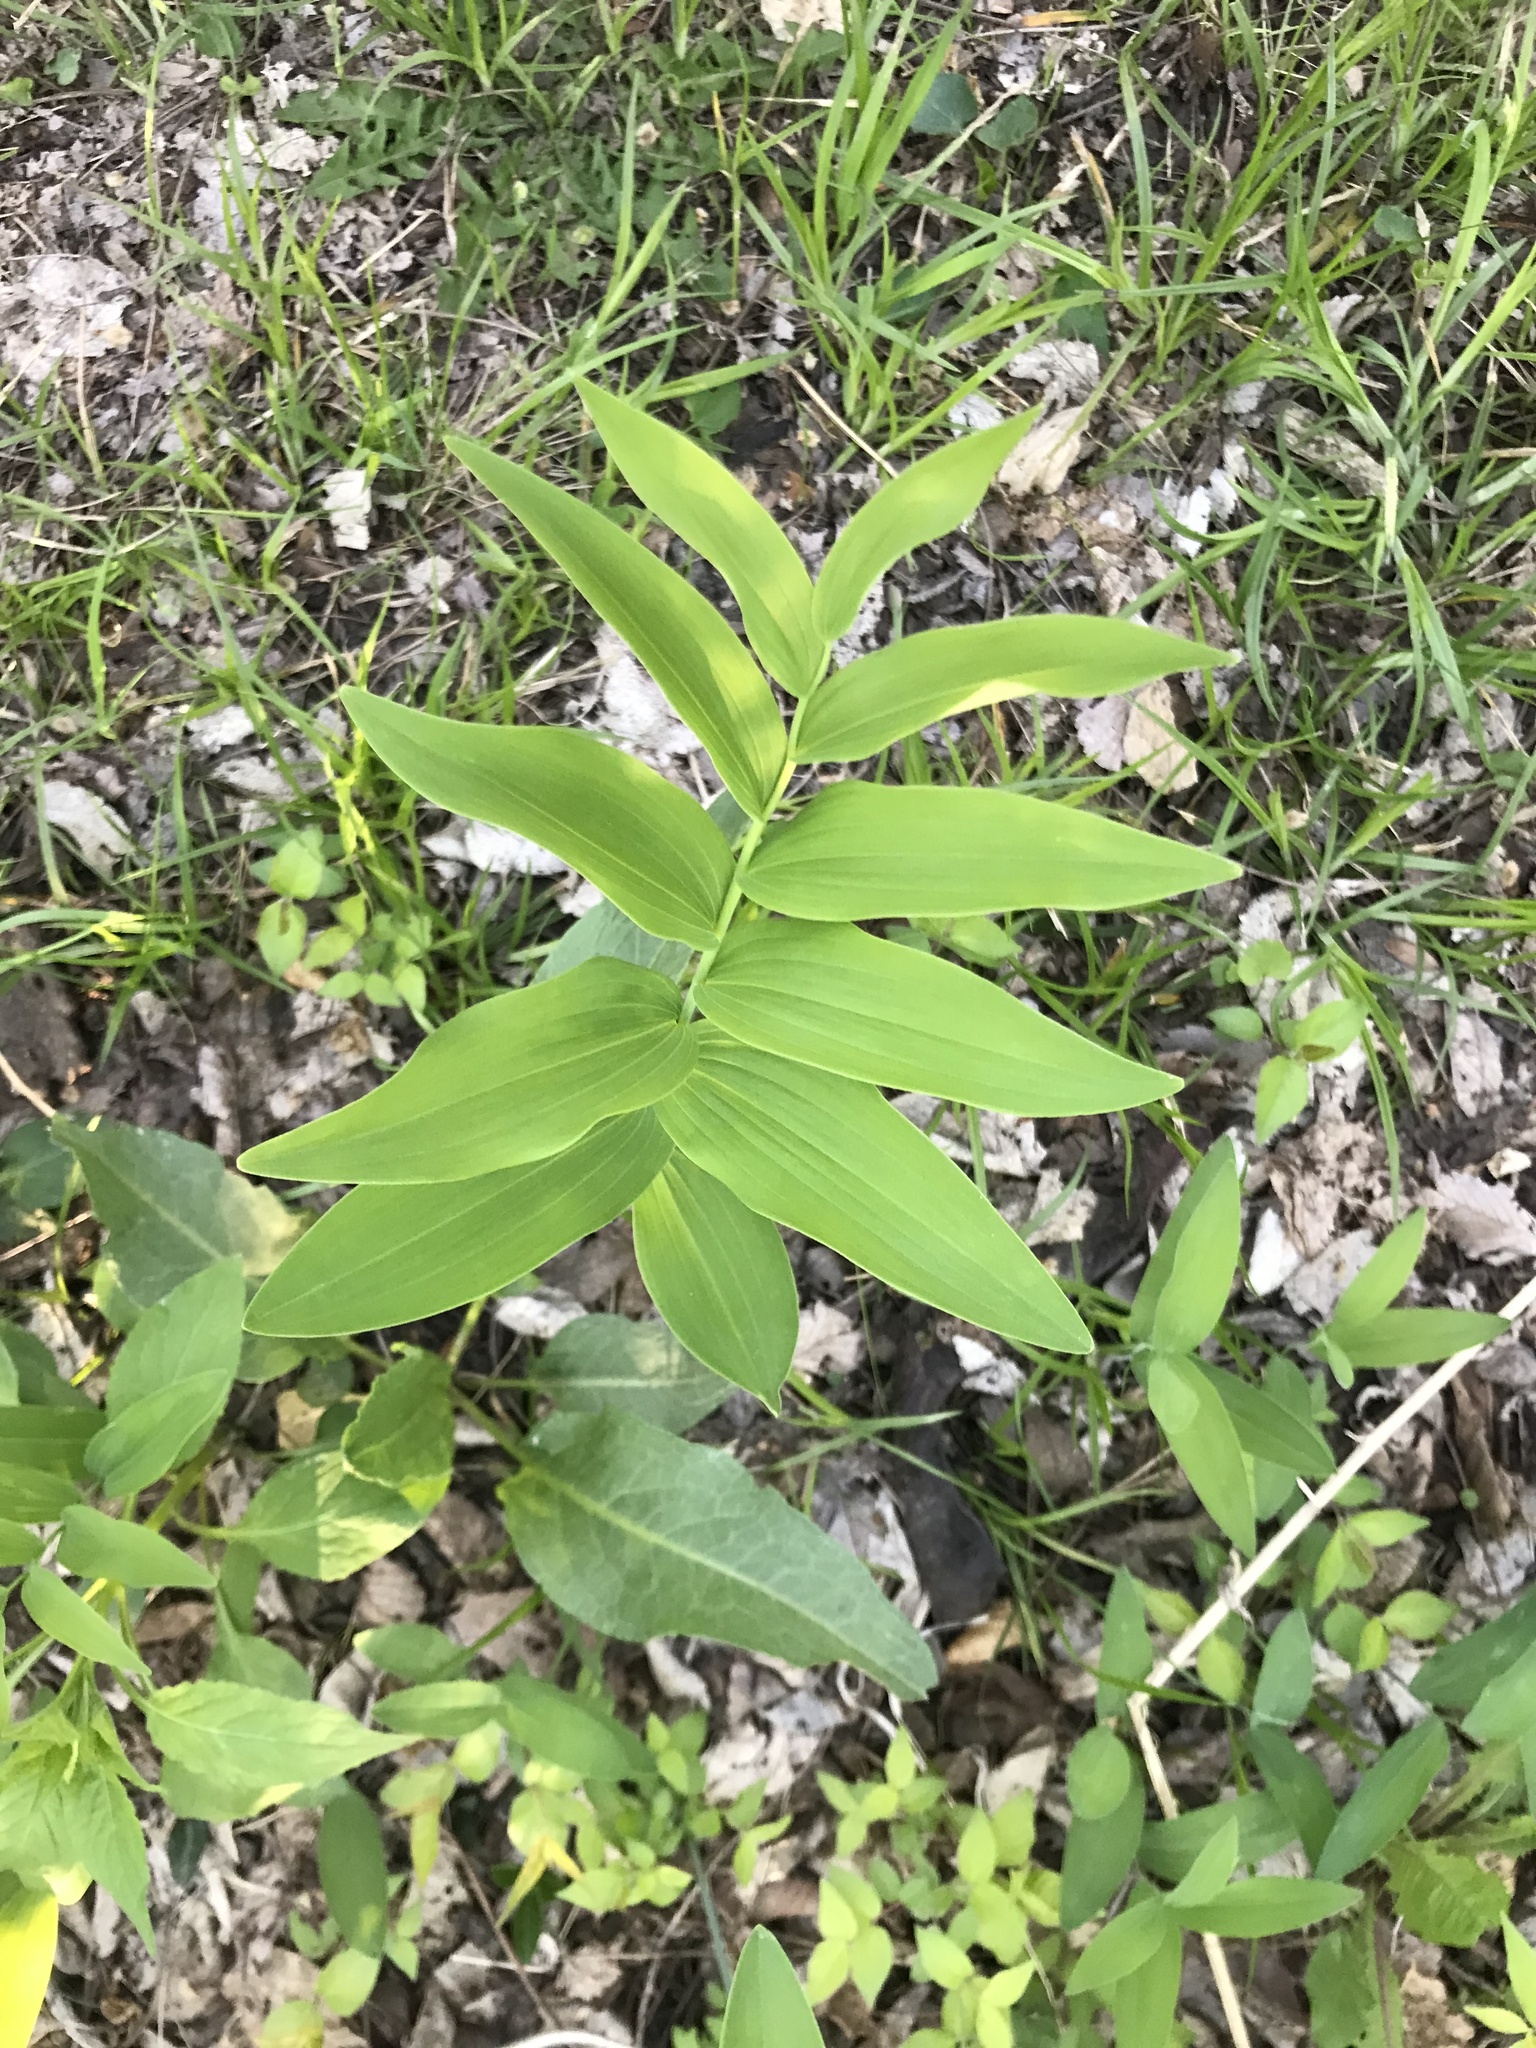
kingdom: Plantae
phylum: Tracheophyta
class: Liliopsida
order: Asparagales
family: Asparagaceae
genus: Polygonatum
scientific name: Polygonatum biflorum
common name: American solomon's-seal
